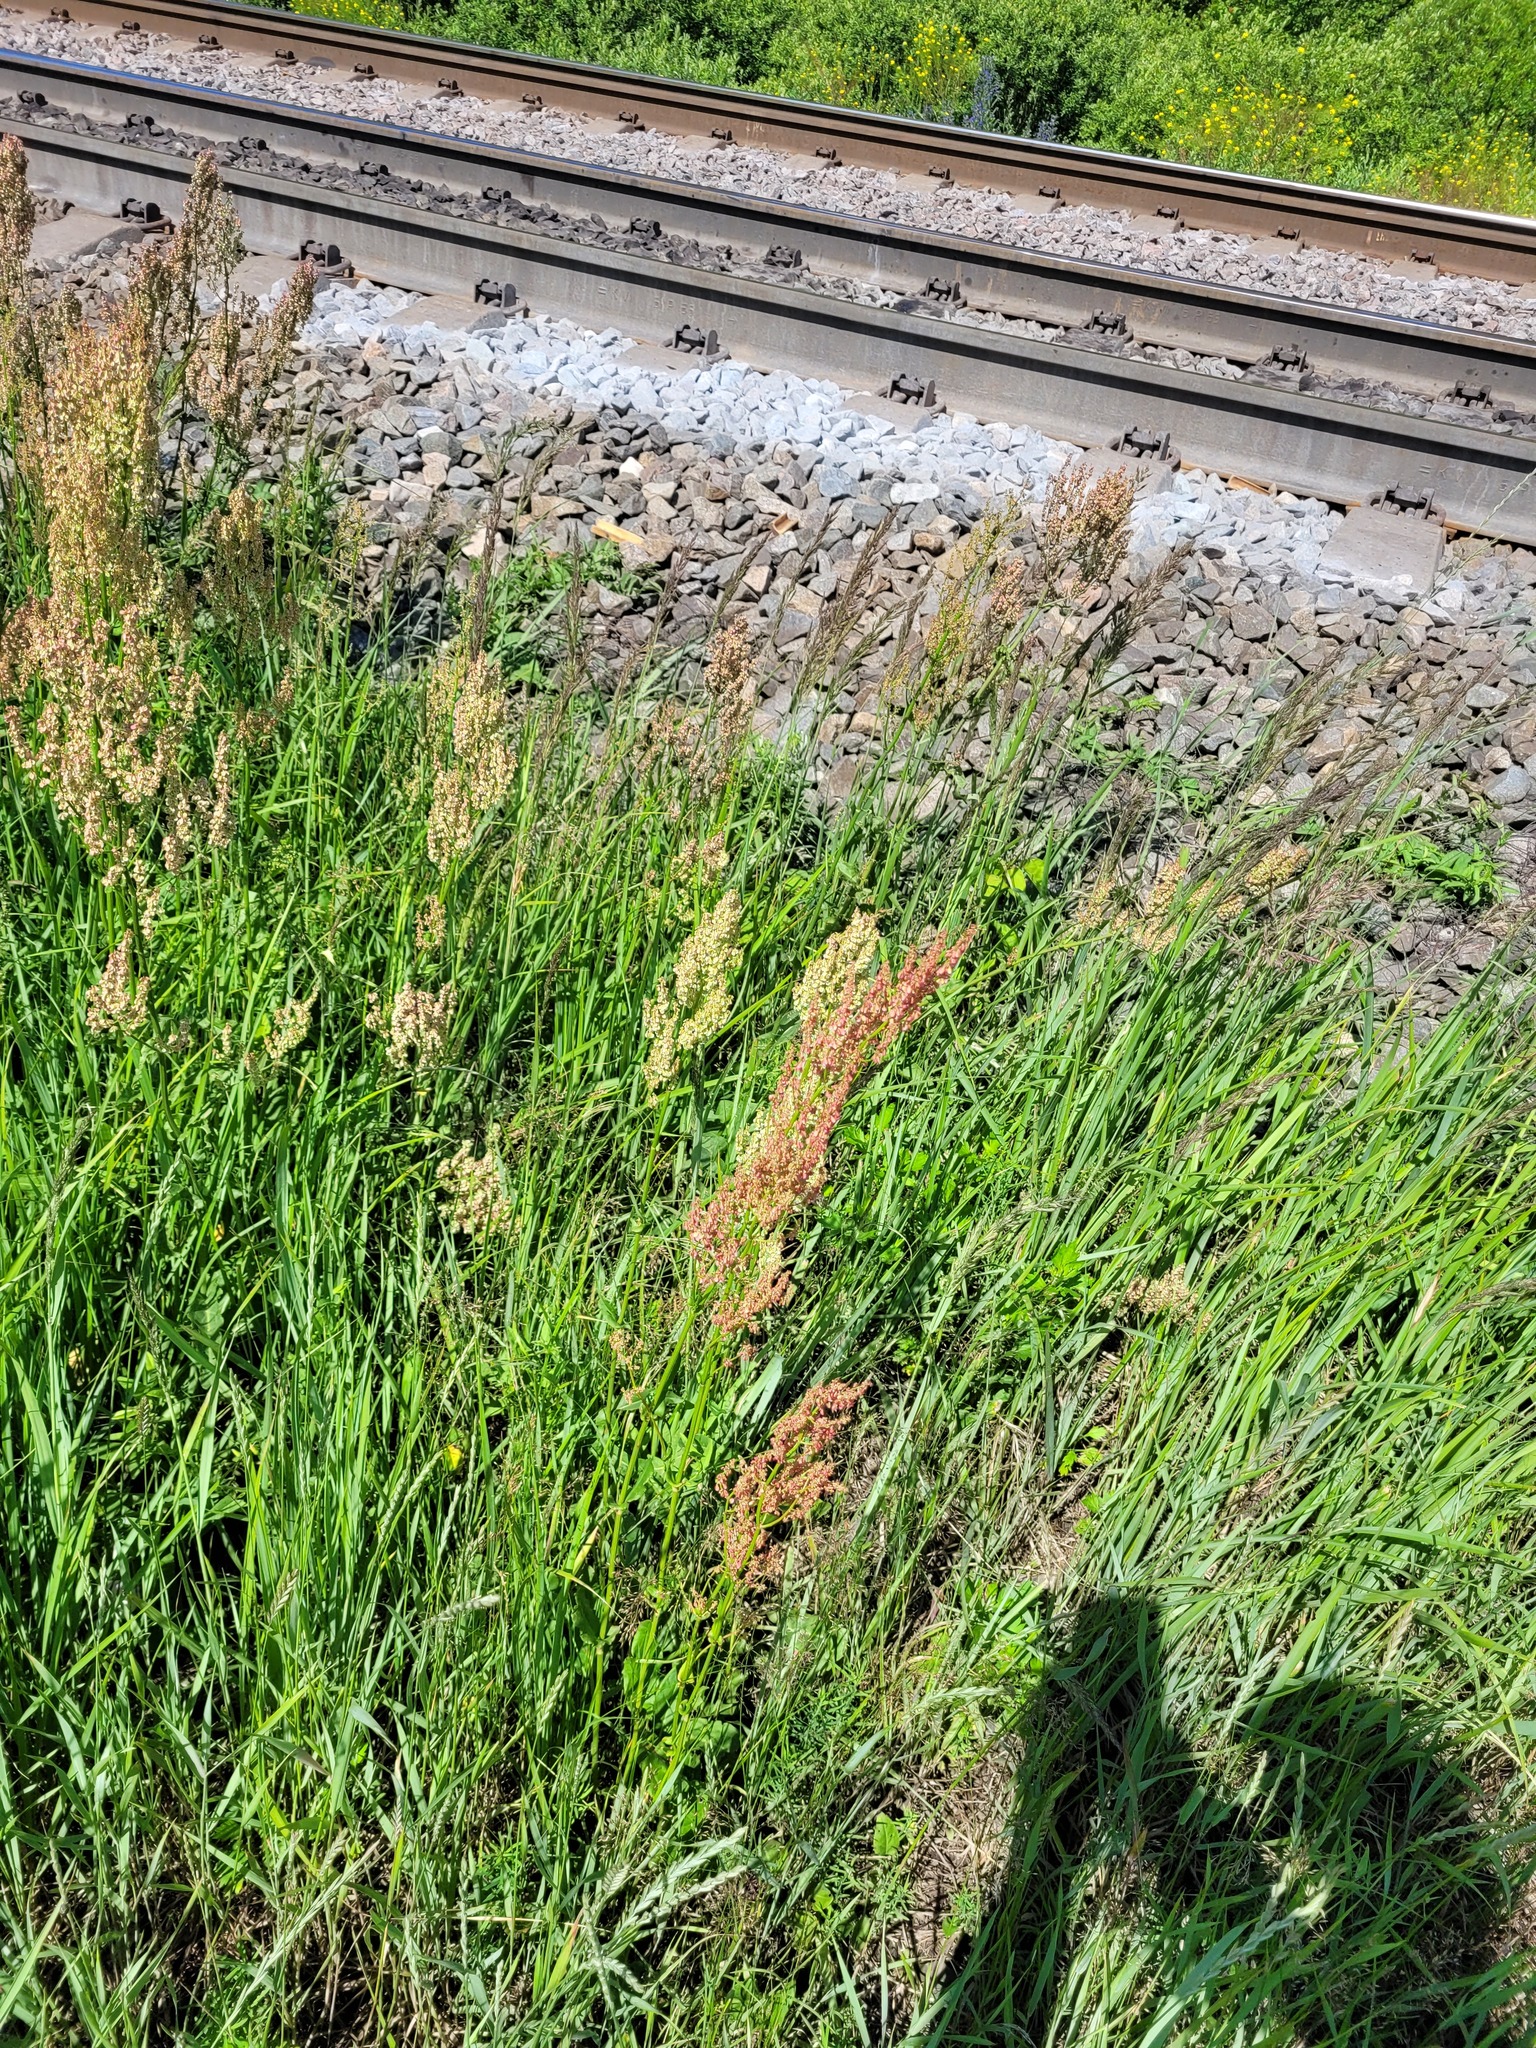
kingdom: Plantae
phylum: Tracheophyta
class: Magnoliopsida
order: Caryophyllales
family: Polygonaceae
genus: Rumex
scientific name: Rumex thyrsiflorus
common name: Garden sorrel
